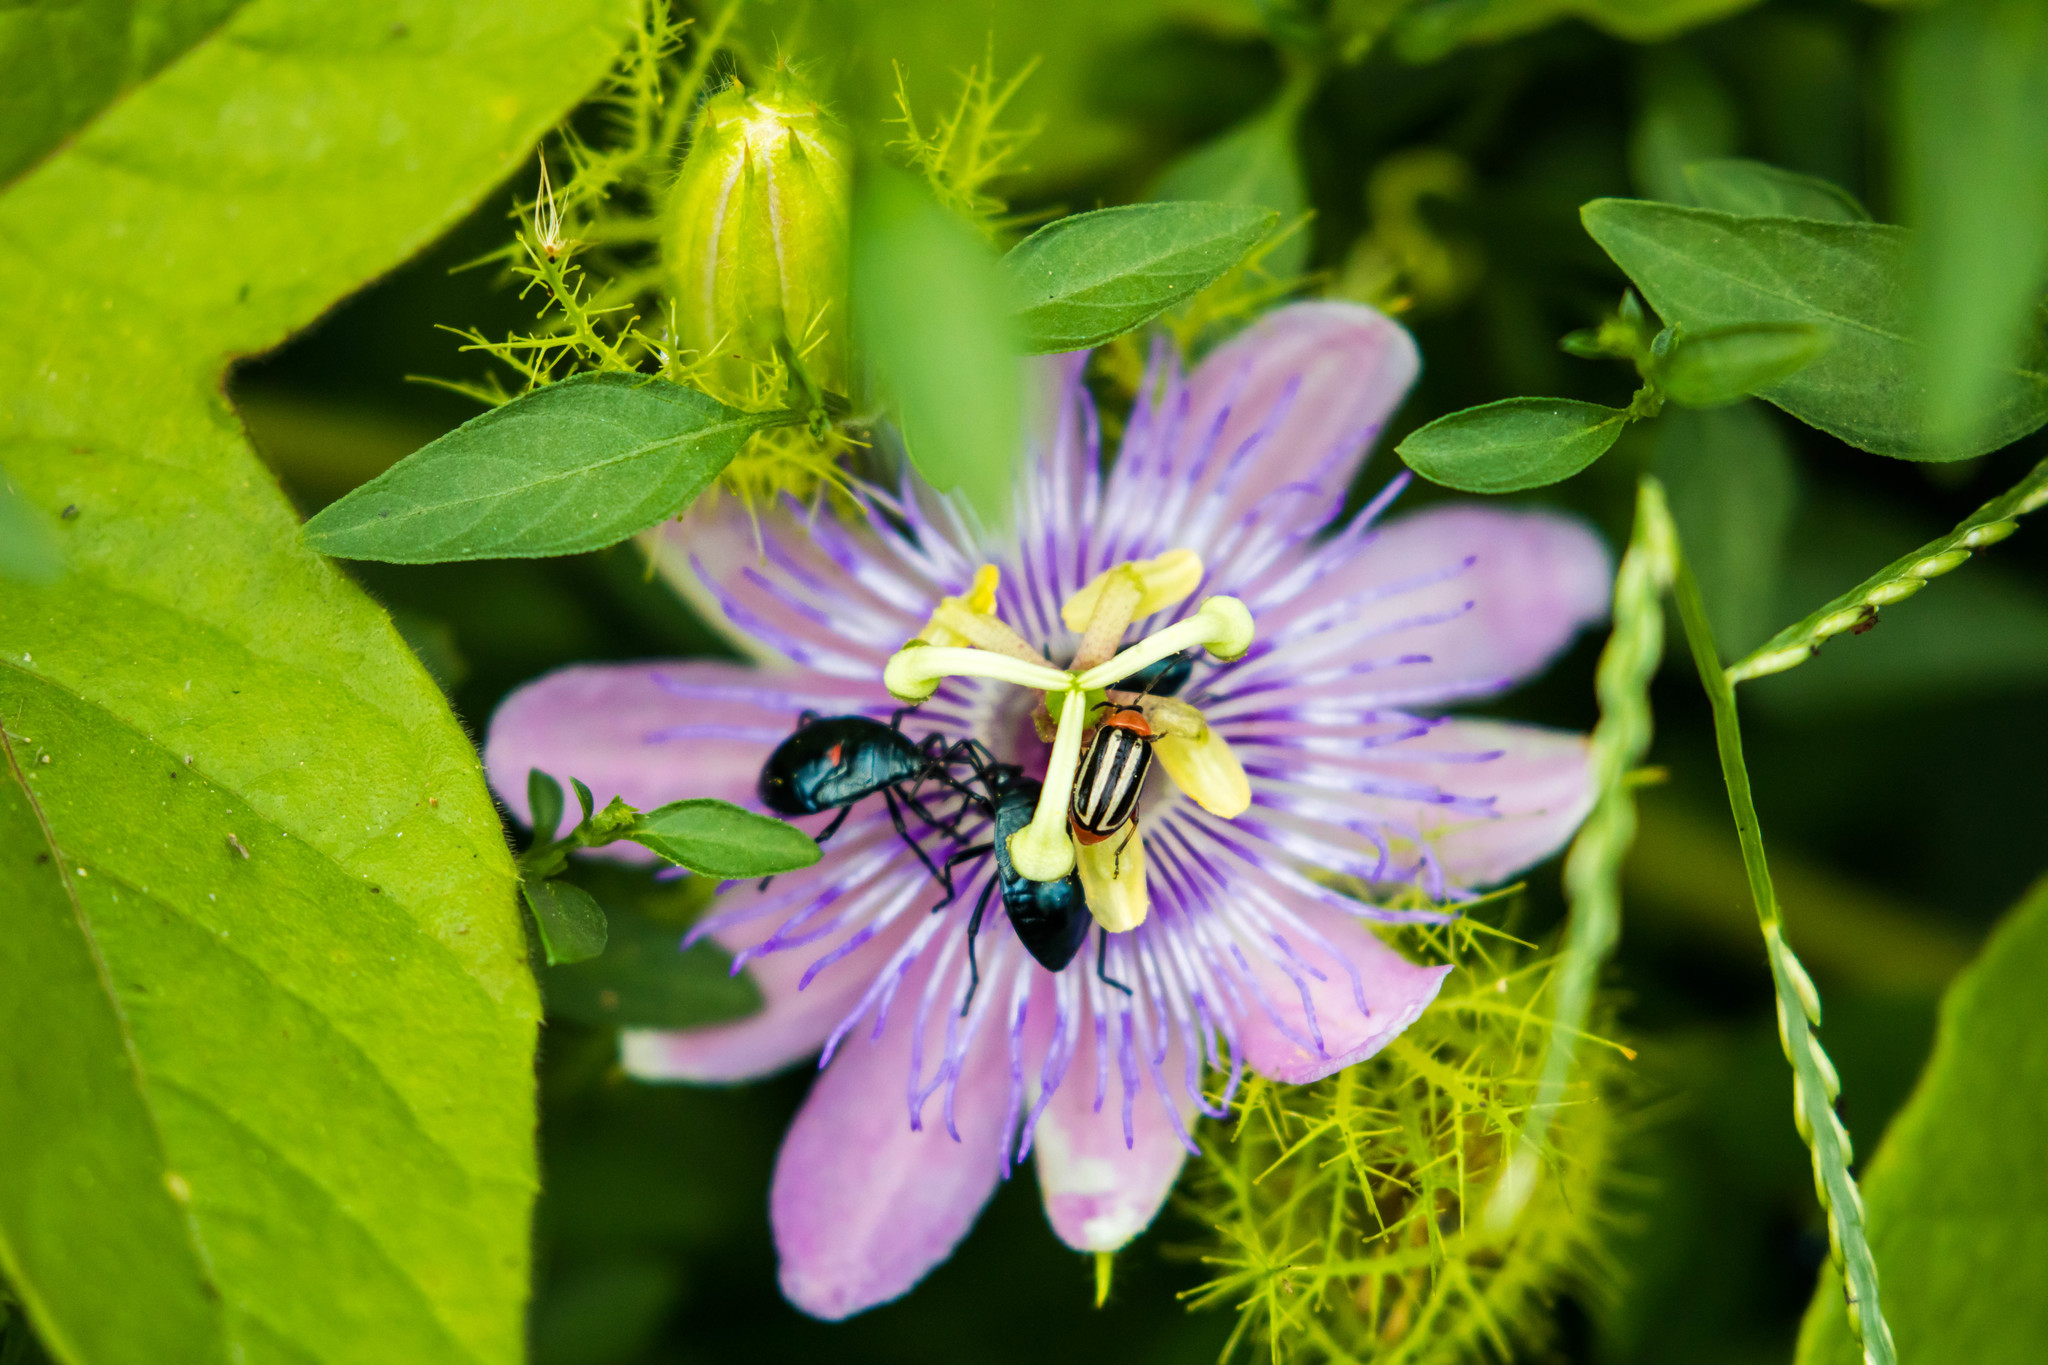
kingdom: Animalia
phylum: Arthropoda
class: Insecta
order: Coleoptera
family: Chrysomelidae
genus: Disonycha
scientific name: Disonycha glabrata
